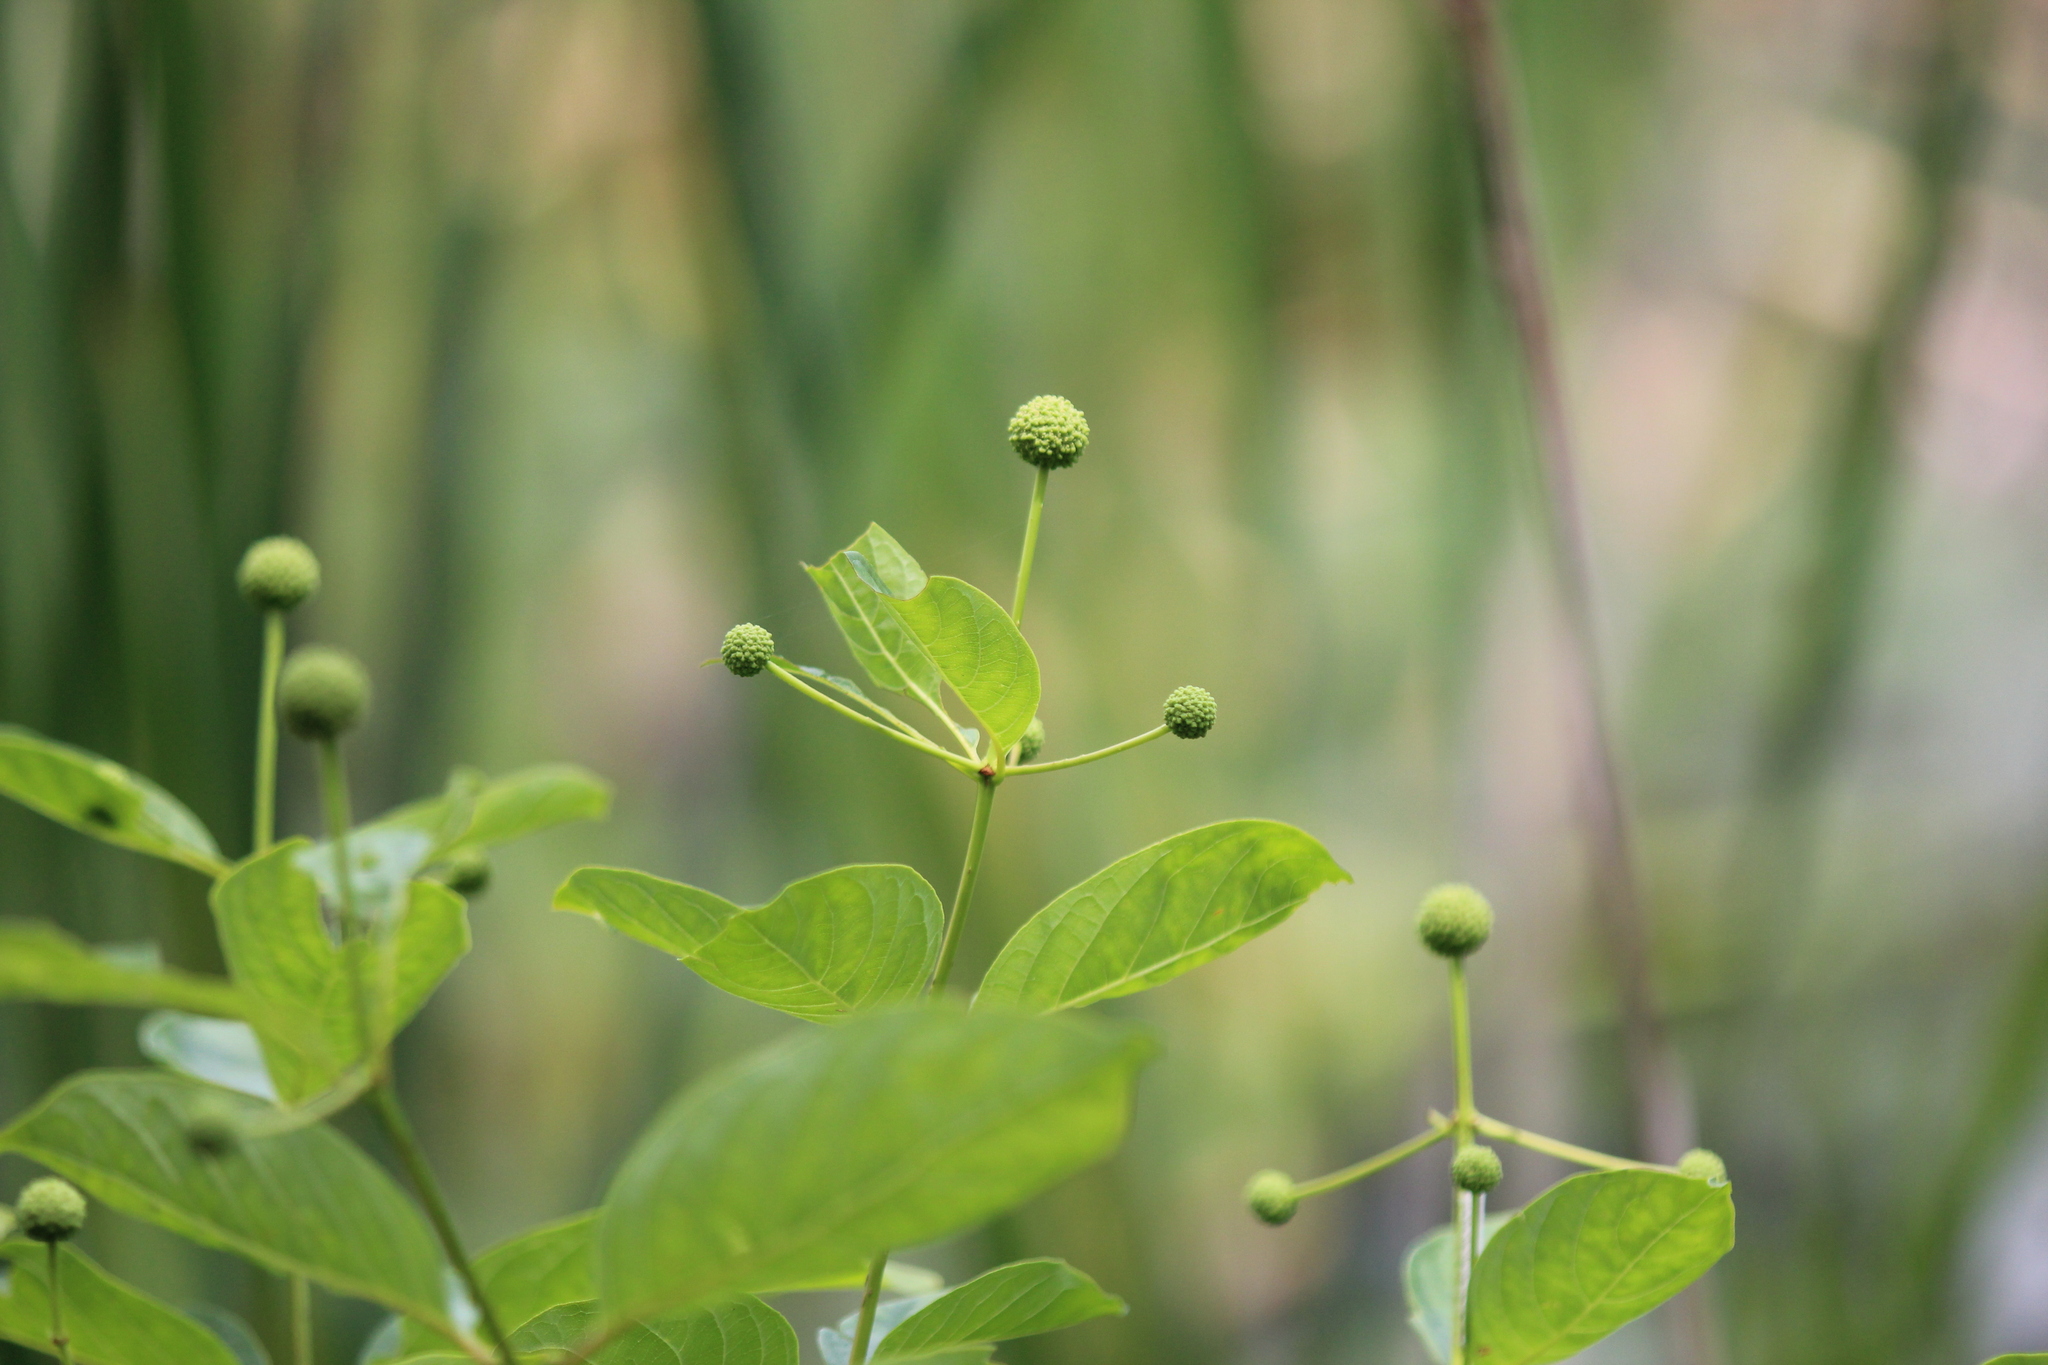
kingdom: Plantae
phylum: Tracheophyta
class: Magnoliopsida
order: Gentianales
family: Rubiaceae
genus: Cephalanthus
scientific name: Cephalanthus occidentalis
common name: Button-willow
